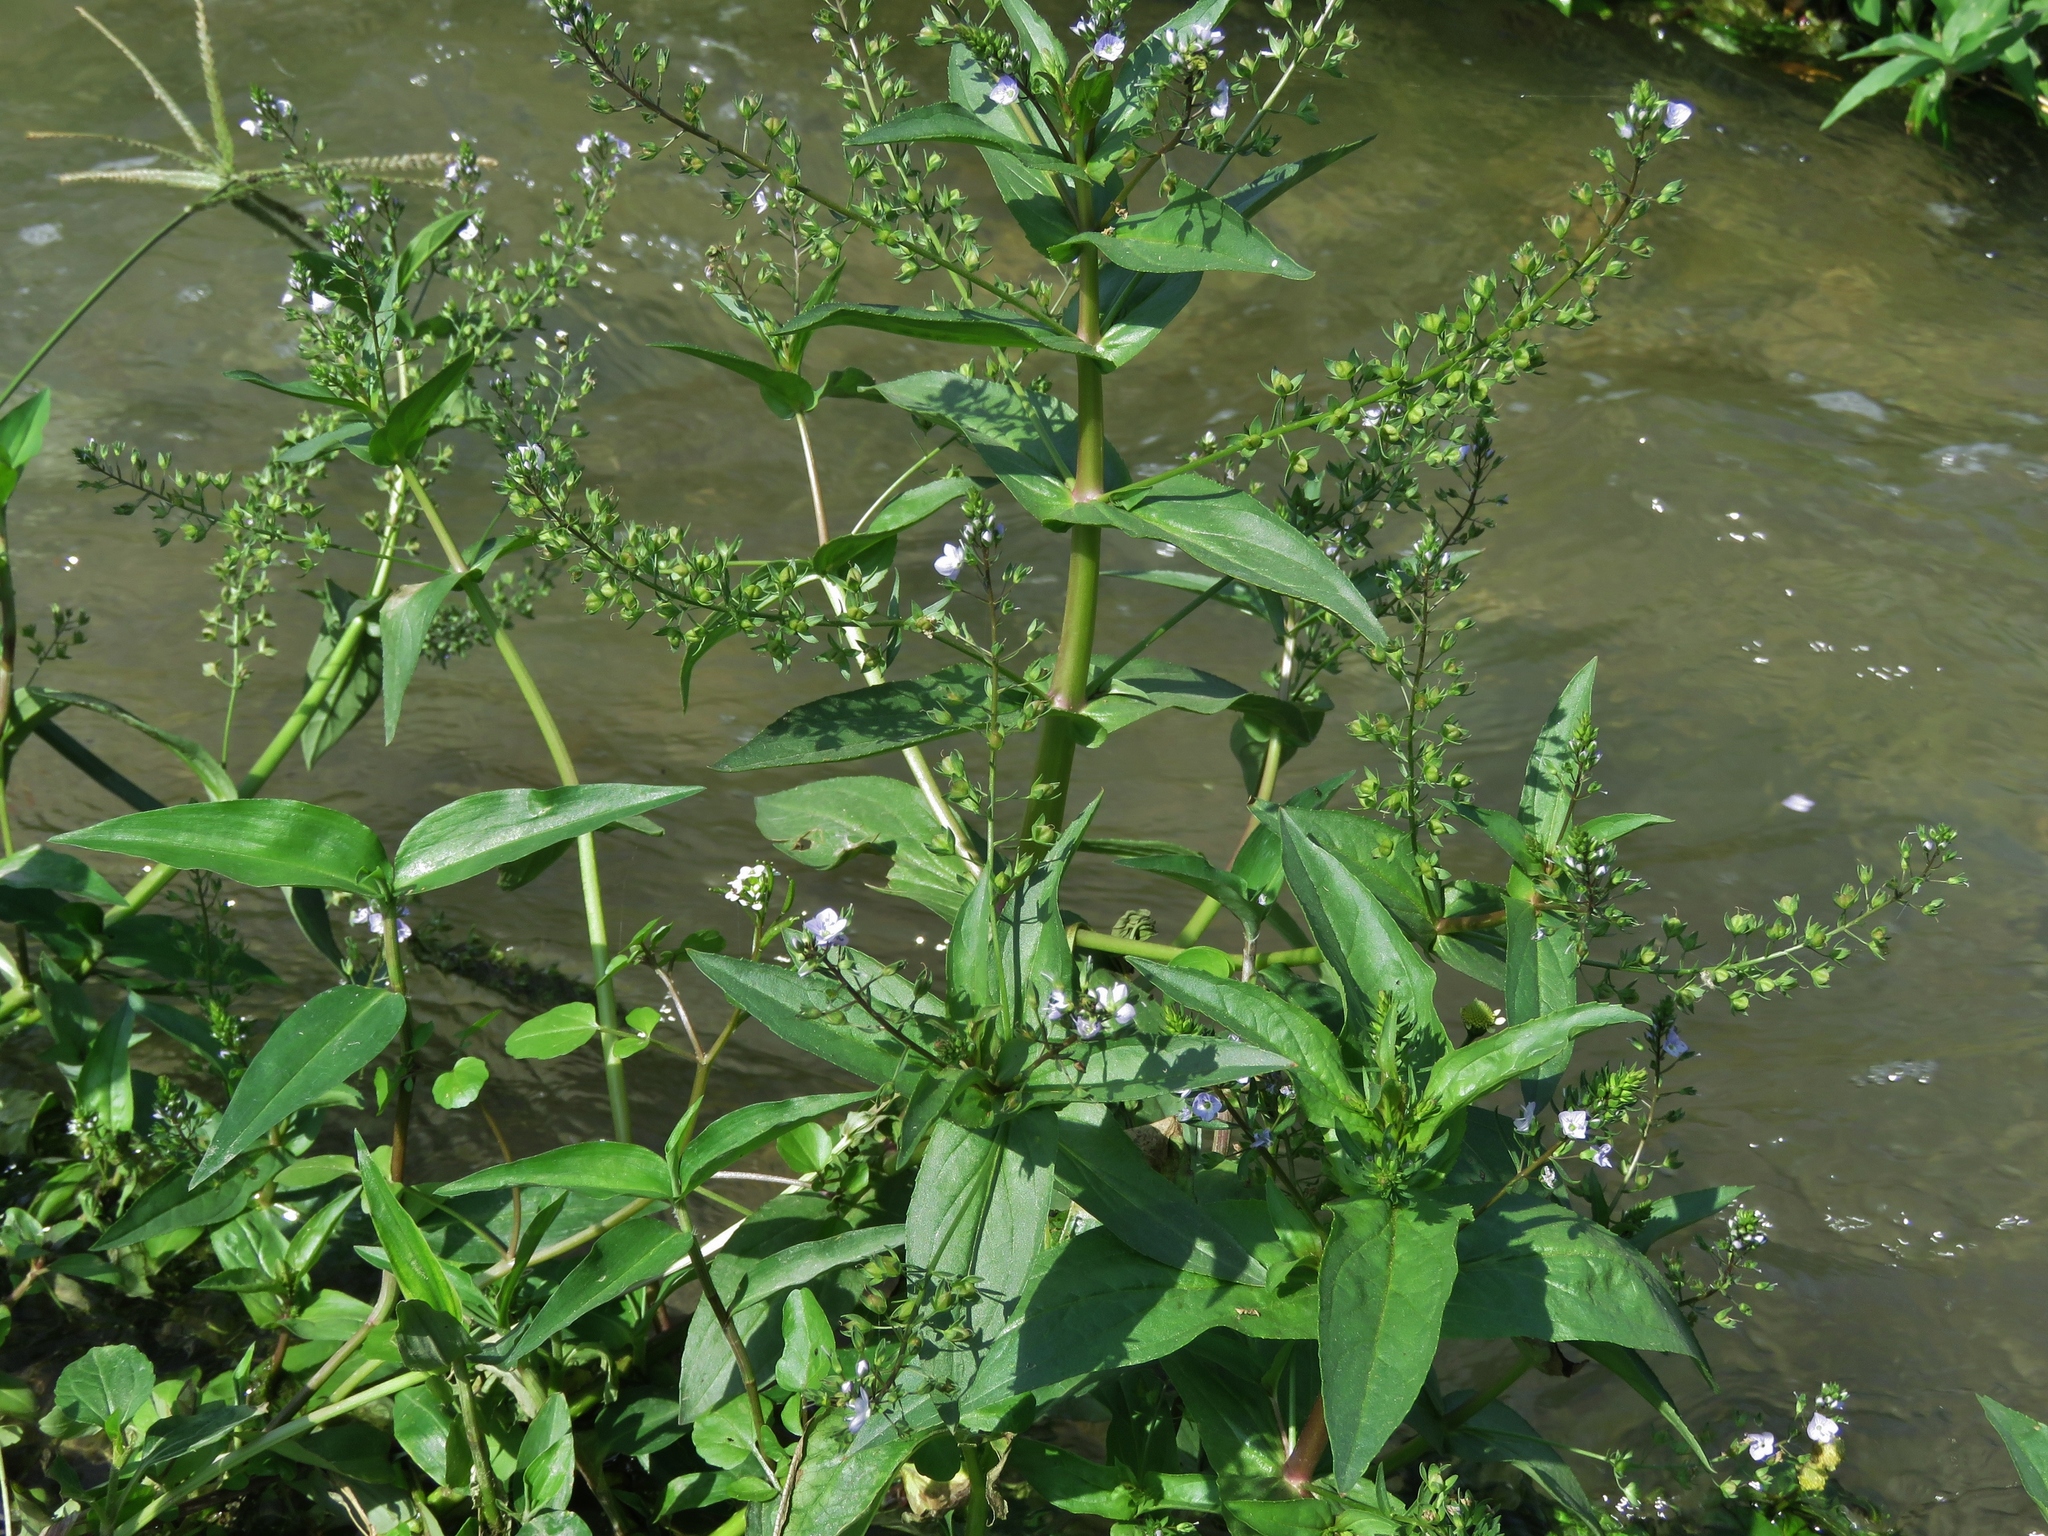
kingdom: Plantae
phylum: Tracheophyta
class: Magnoliopsida
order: Lamiales
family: Plantaginaceae
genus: Veronica
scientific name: Veronica anagallis-aquatica
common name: Water speedwell
